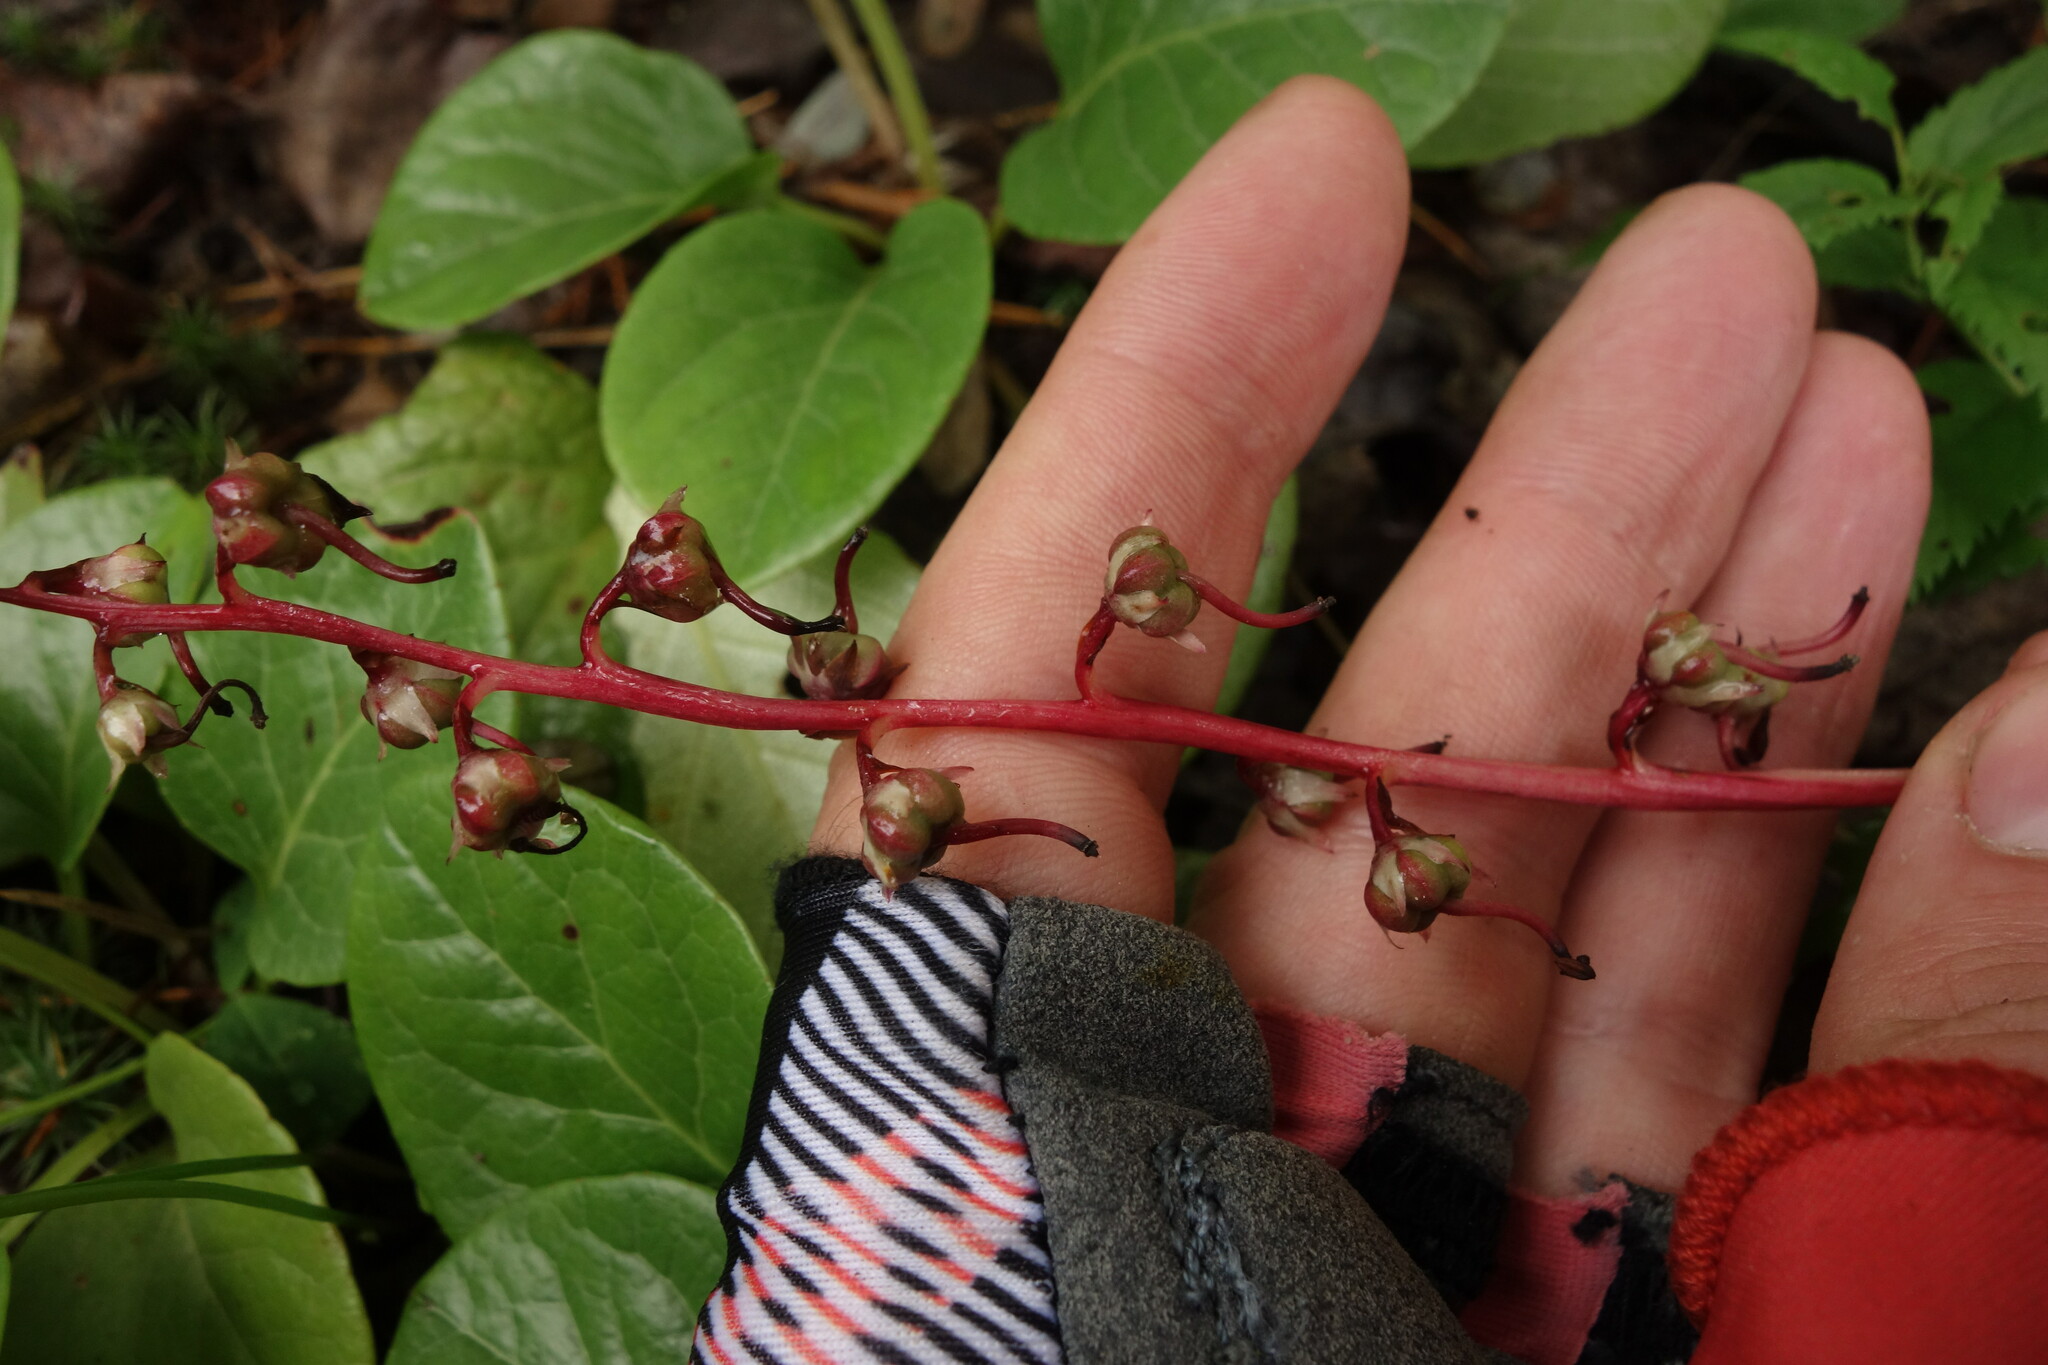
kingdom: Plantae
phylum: Tracheophyta
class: Magnoliopsida
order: Ericales
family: Ericaceae
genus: Pyrola
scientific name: Pyrola asarifolia
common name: Bog wintergreen
